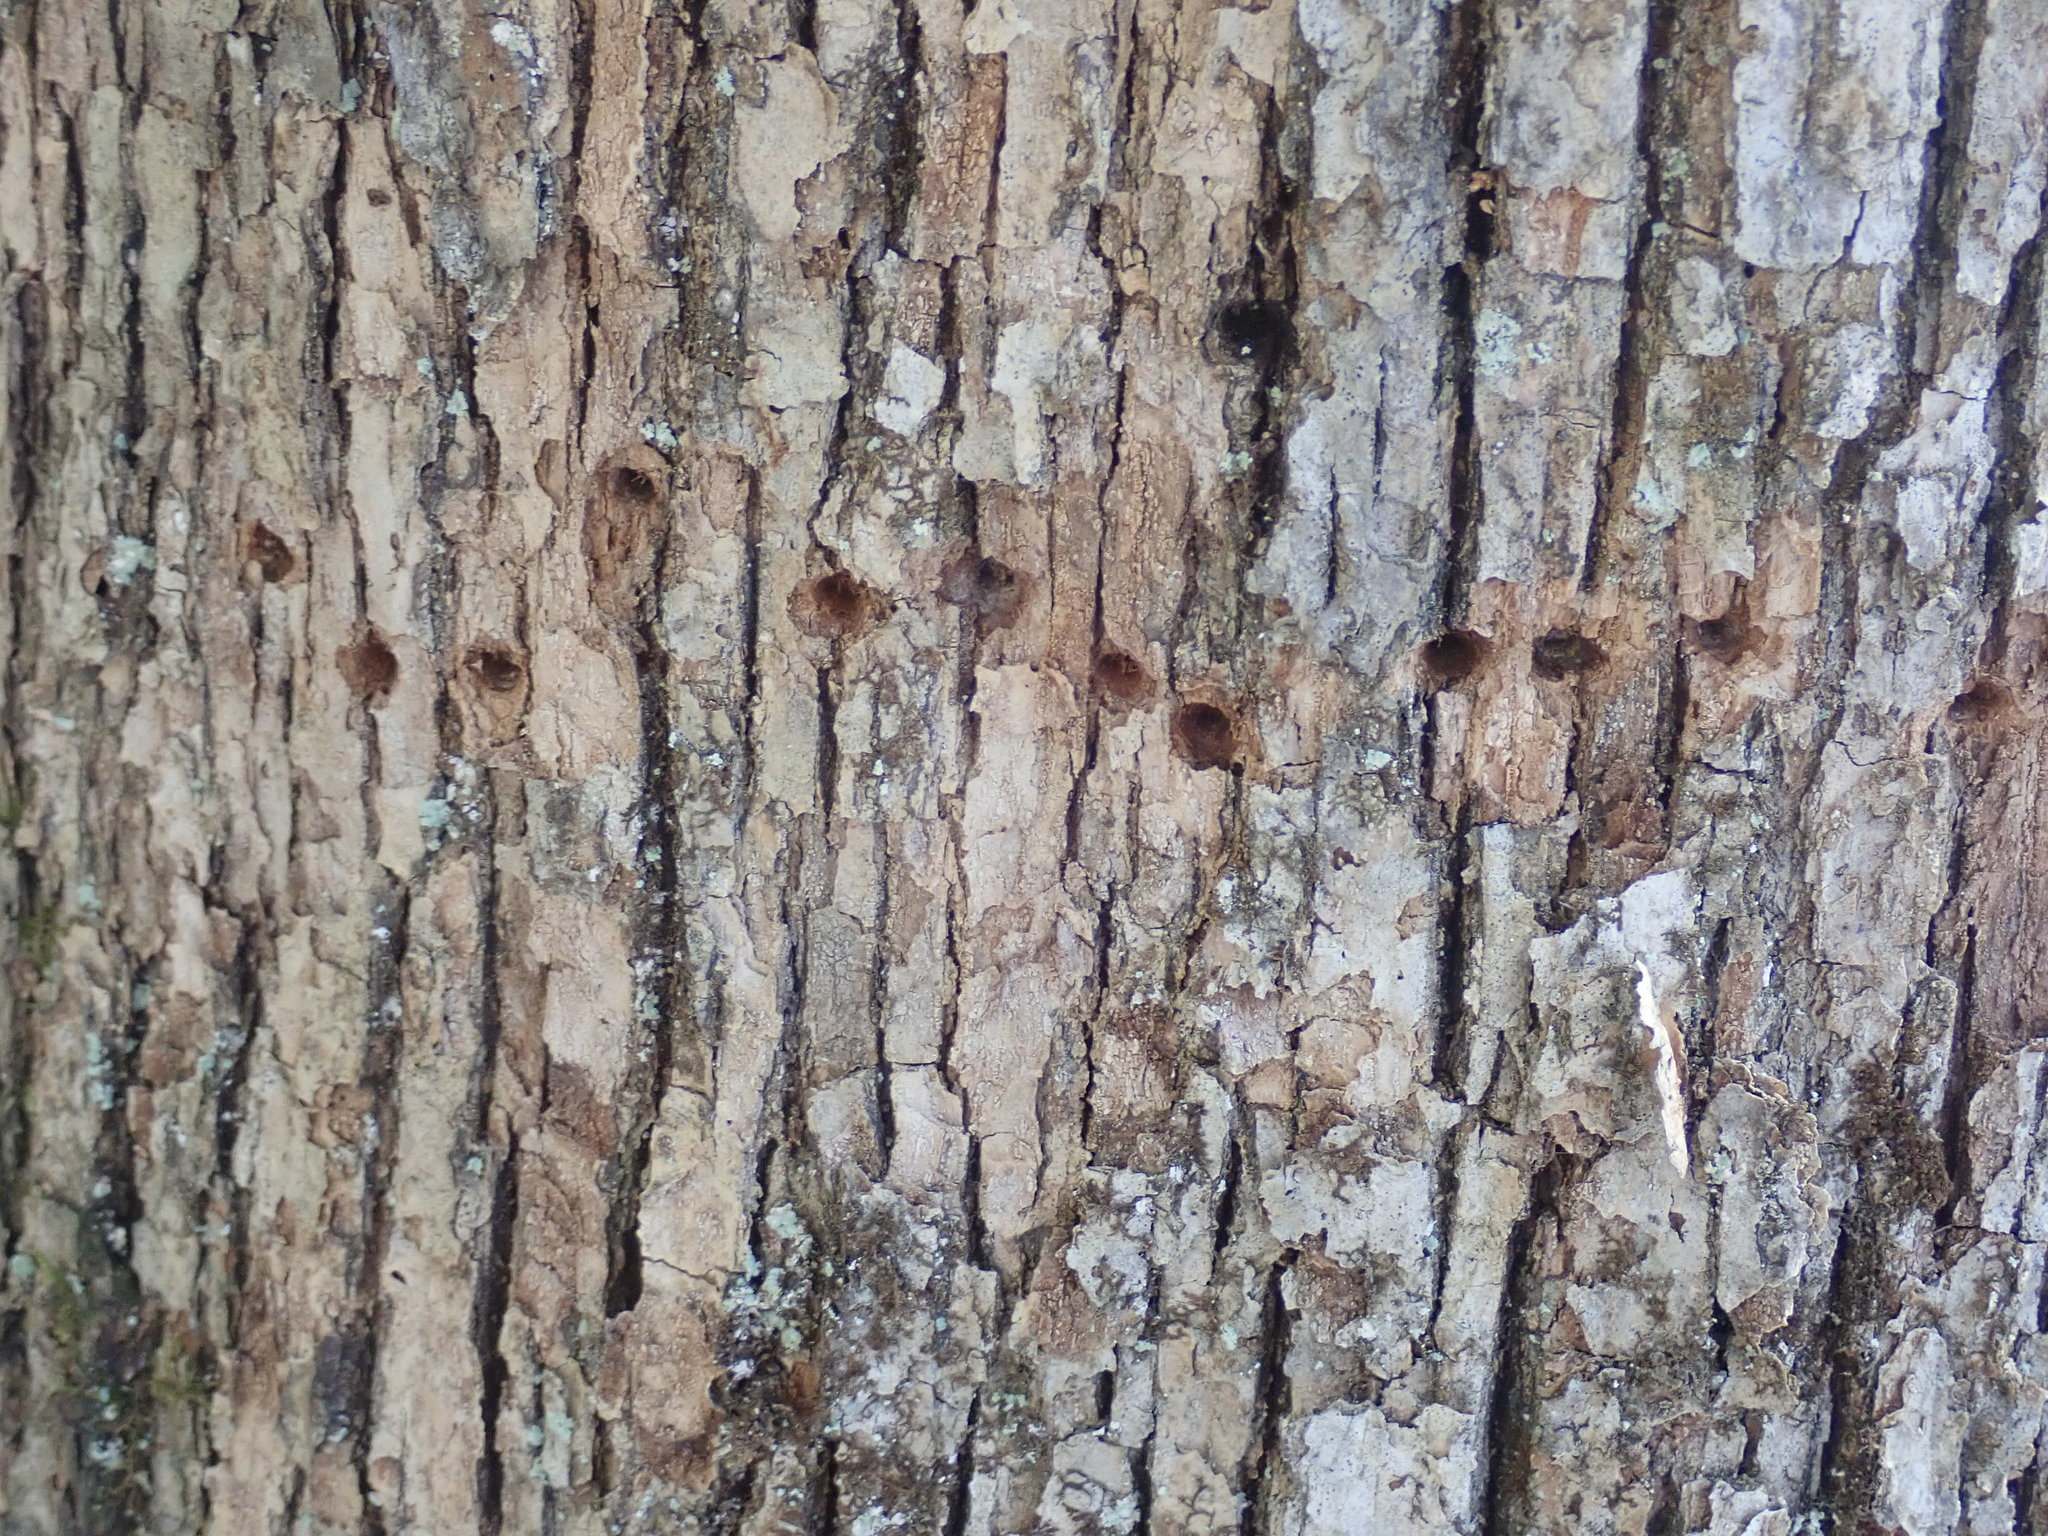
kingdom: Animalia
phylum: Chordata
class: Aves
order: Piciformes
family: Picidae
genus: Sphyrapicus
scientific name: Sphyrapicus varius
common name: Yellow-bellied sapsucker
